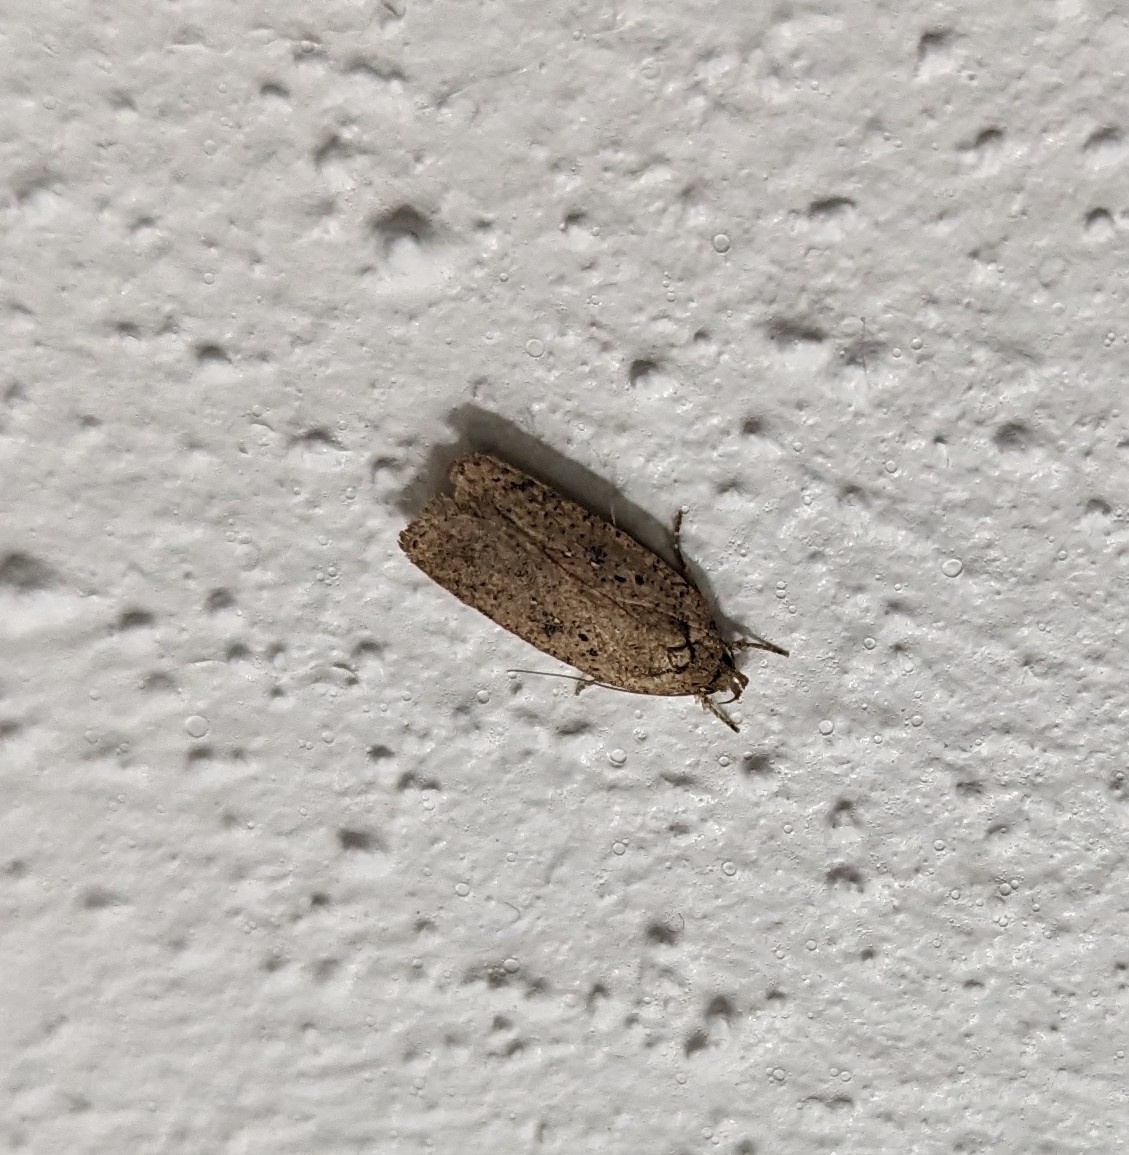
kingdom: Animalia
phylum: Arthropoda
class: Insecta
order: Lepidoptera
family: Depressariidae
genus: Agonopterix
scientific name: Agonopterix
